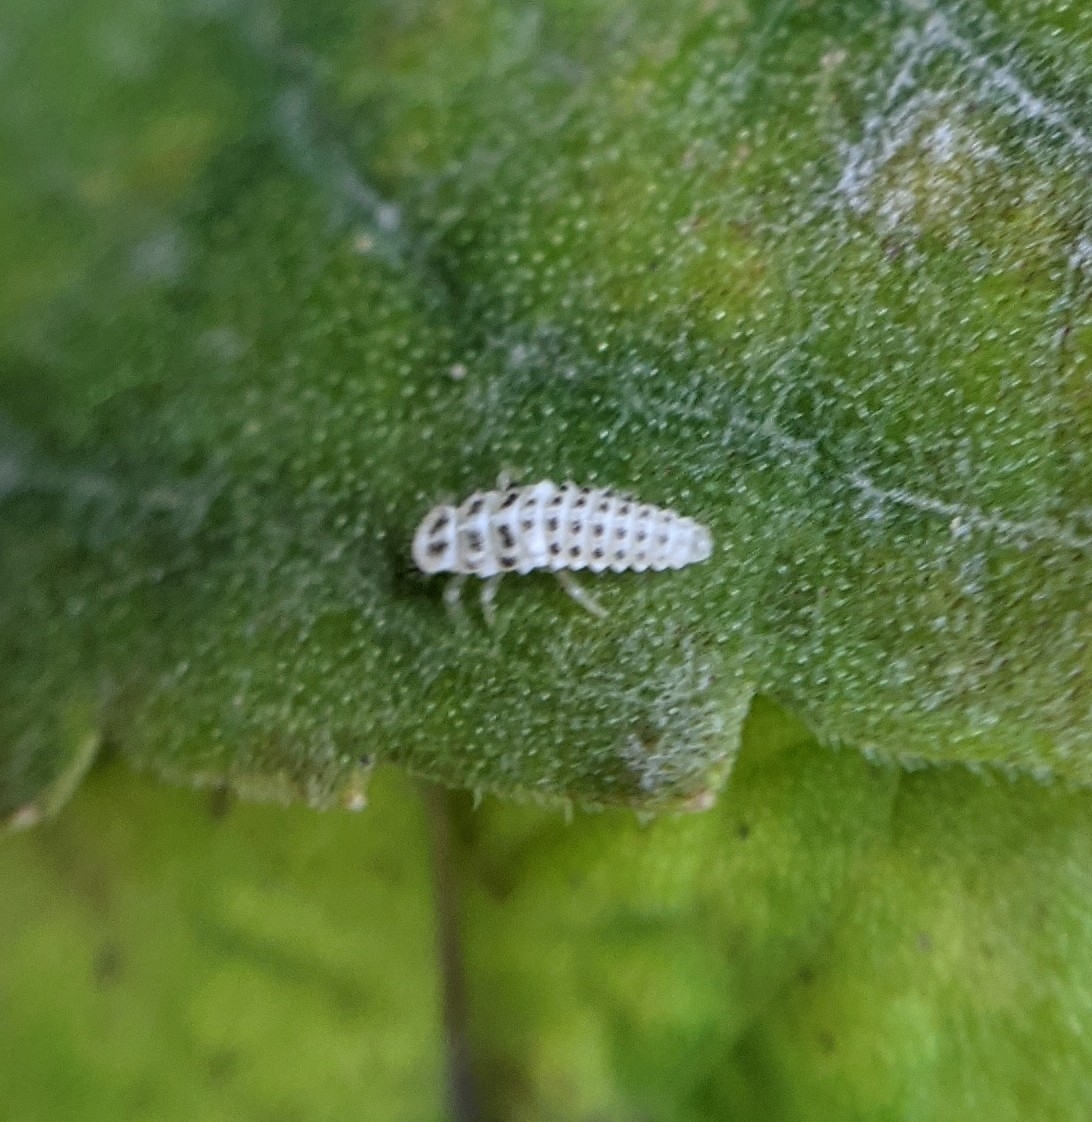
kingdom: Animalia
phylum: Arthropoda
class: Insecta
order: Coleoptera
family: Coccinellidae
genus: Psyllobora
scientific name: Psyllobora vigintimaculata
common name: Ladybird beetle
